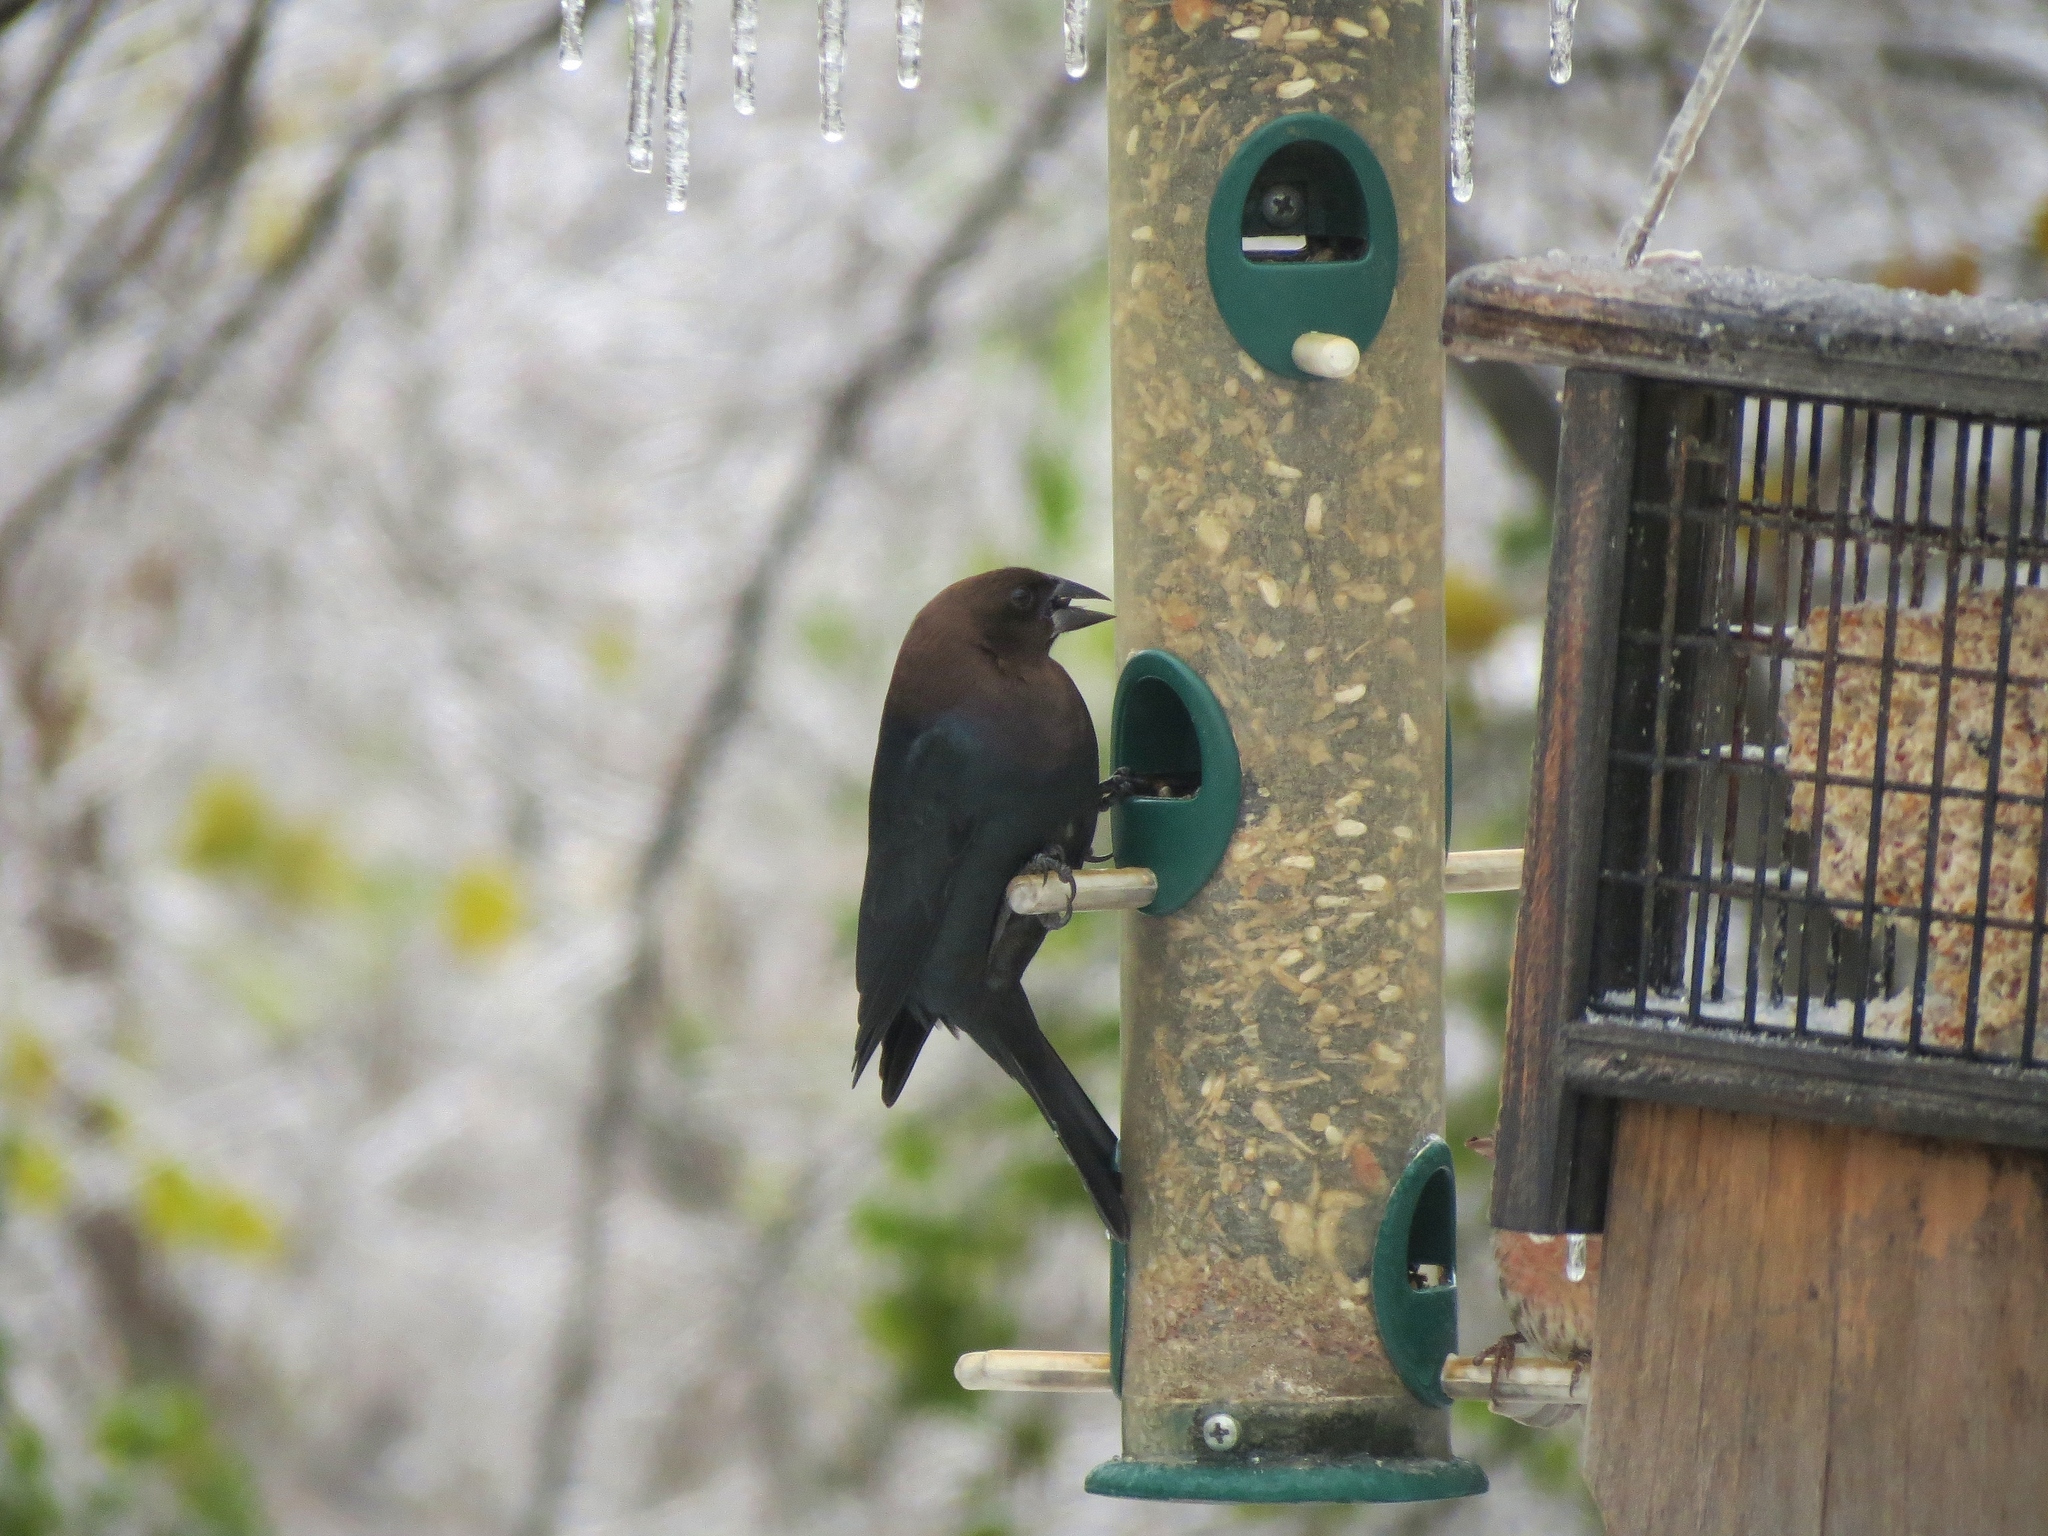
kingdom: Animalia
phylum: Chordata
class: Aves
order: Passeriformes
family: Icteridae
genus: Molothrus
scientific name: Molothrus ater
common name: Brown-headed cowbird
